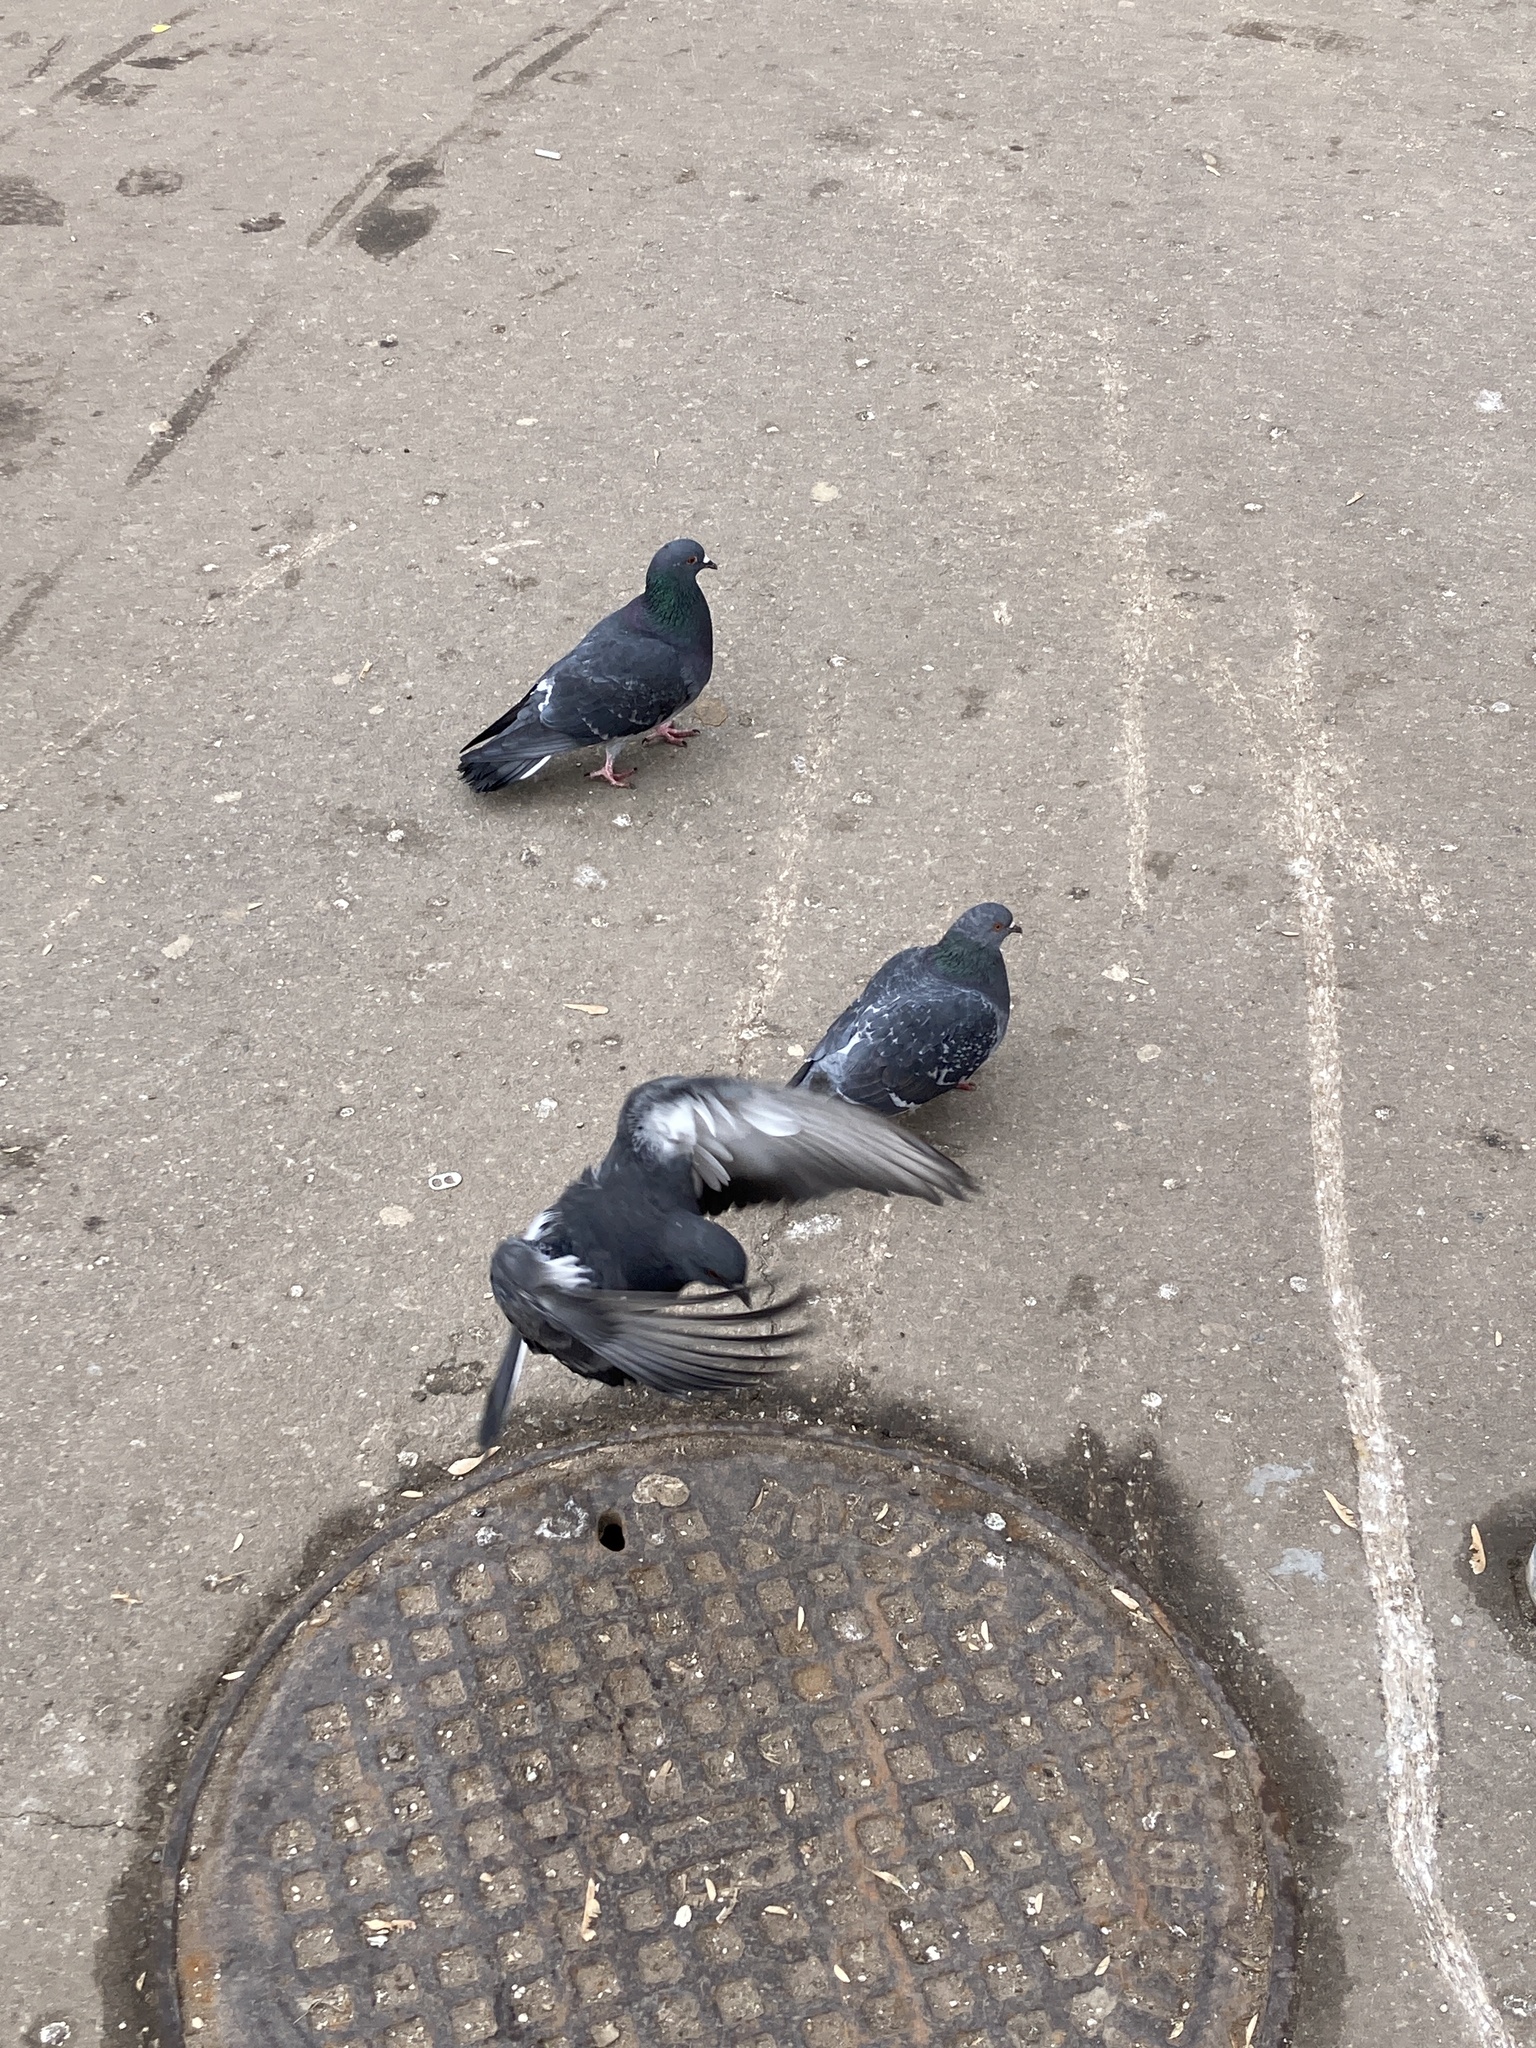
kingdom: Animalia
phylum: Chordata
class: Aves
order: Columbiformes
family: Columbidae
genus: Columba
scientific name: Columba livia
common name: Rock pigeon
